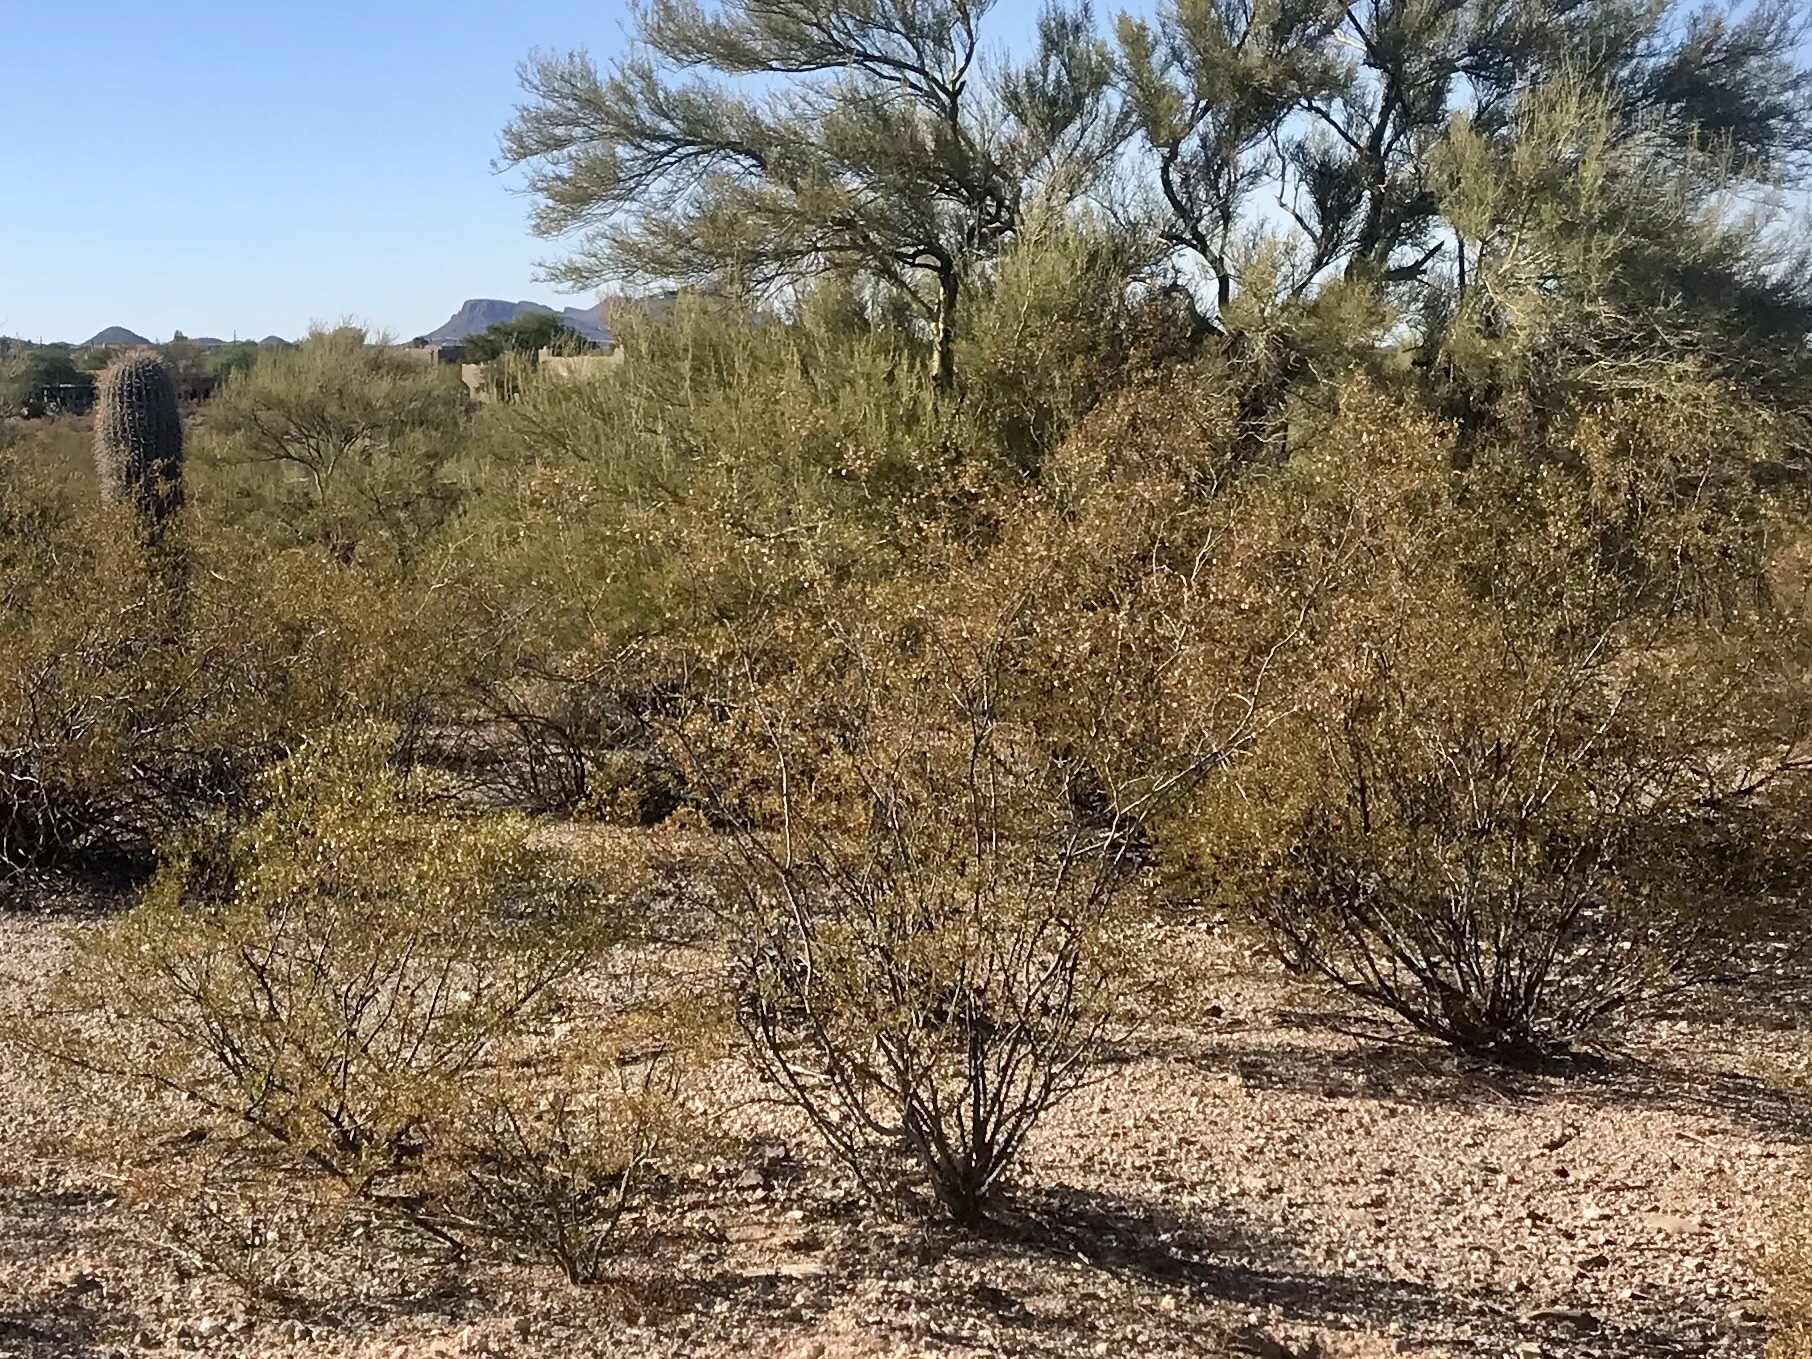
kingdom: Plantae
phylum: Tracheophyta
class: Magnoliopsida
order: Zygophyllales
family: Zygophyllaceae
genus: Larrea
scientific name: Larrea tridentata
